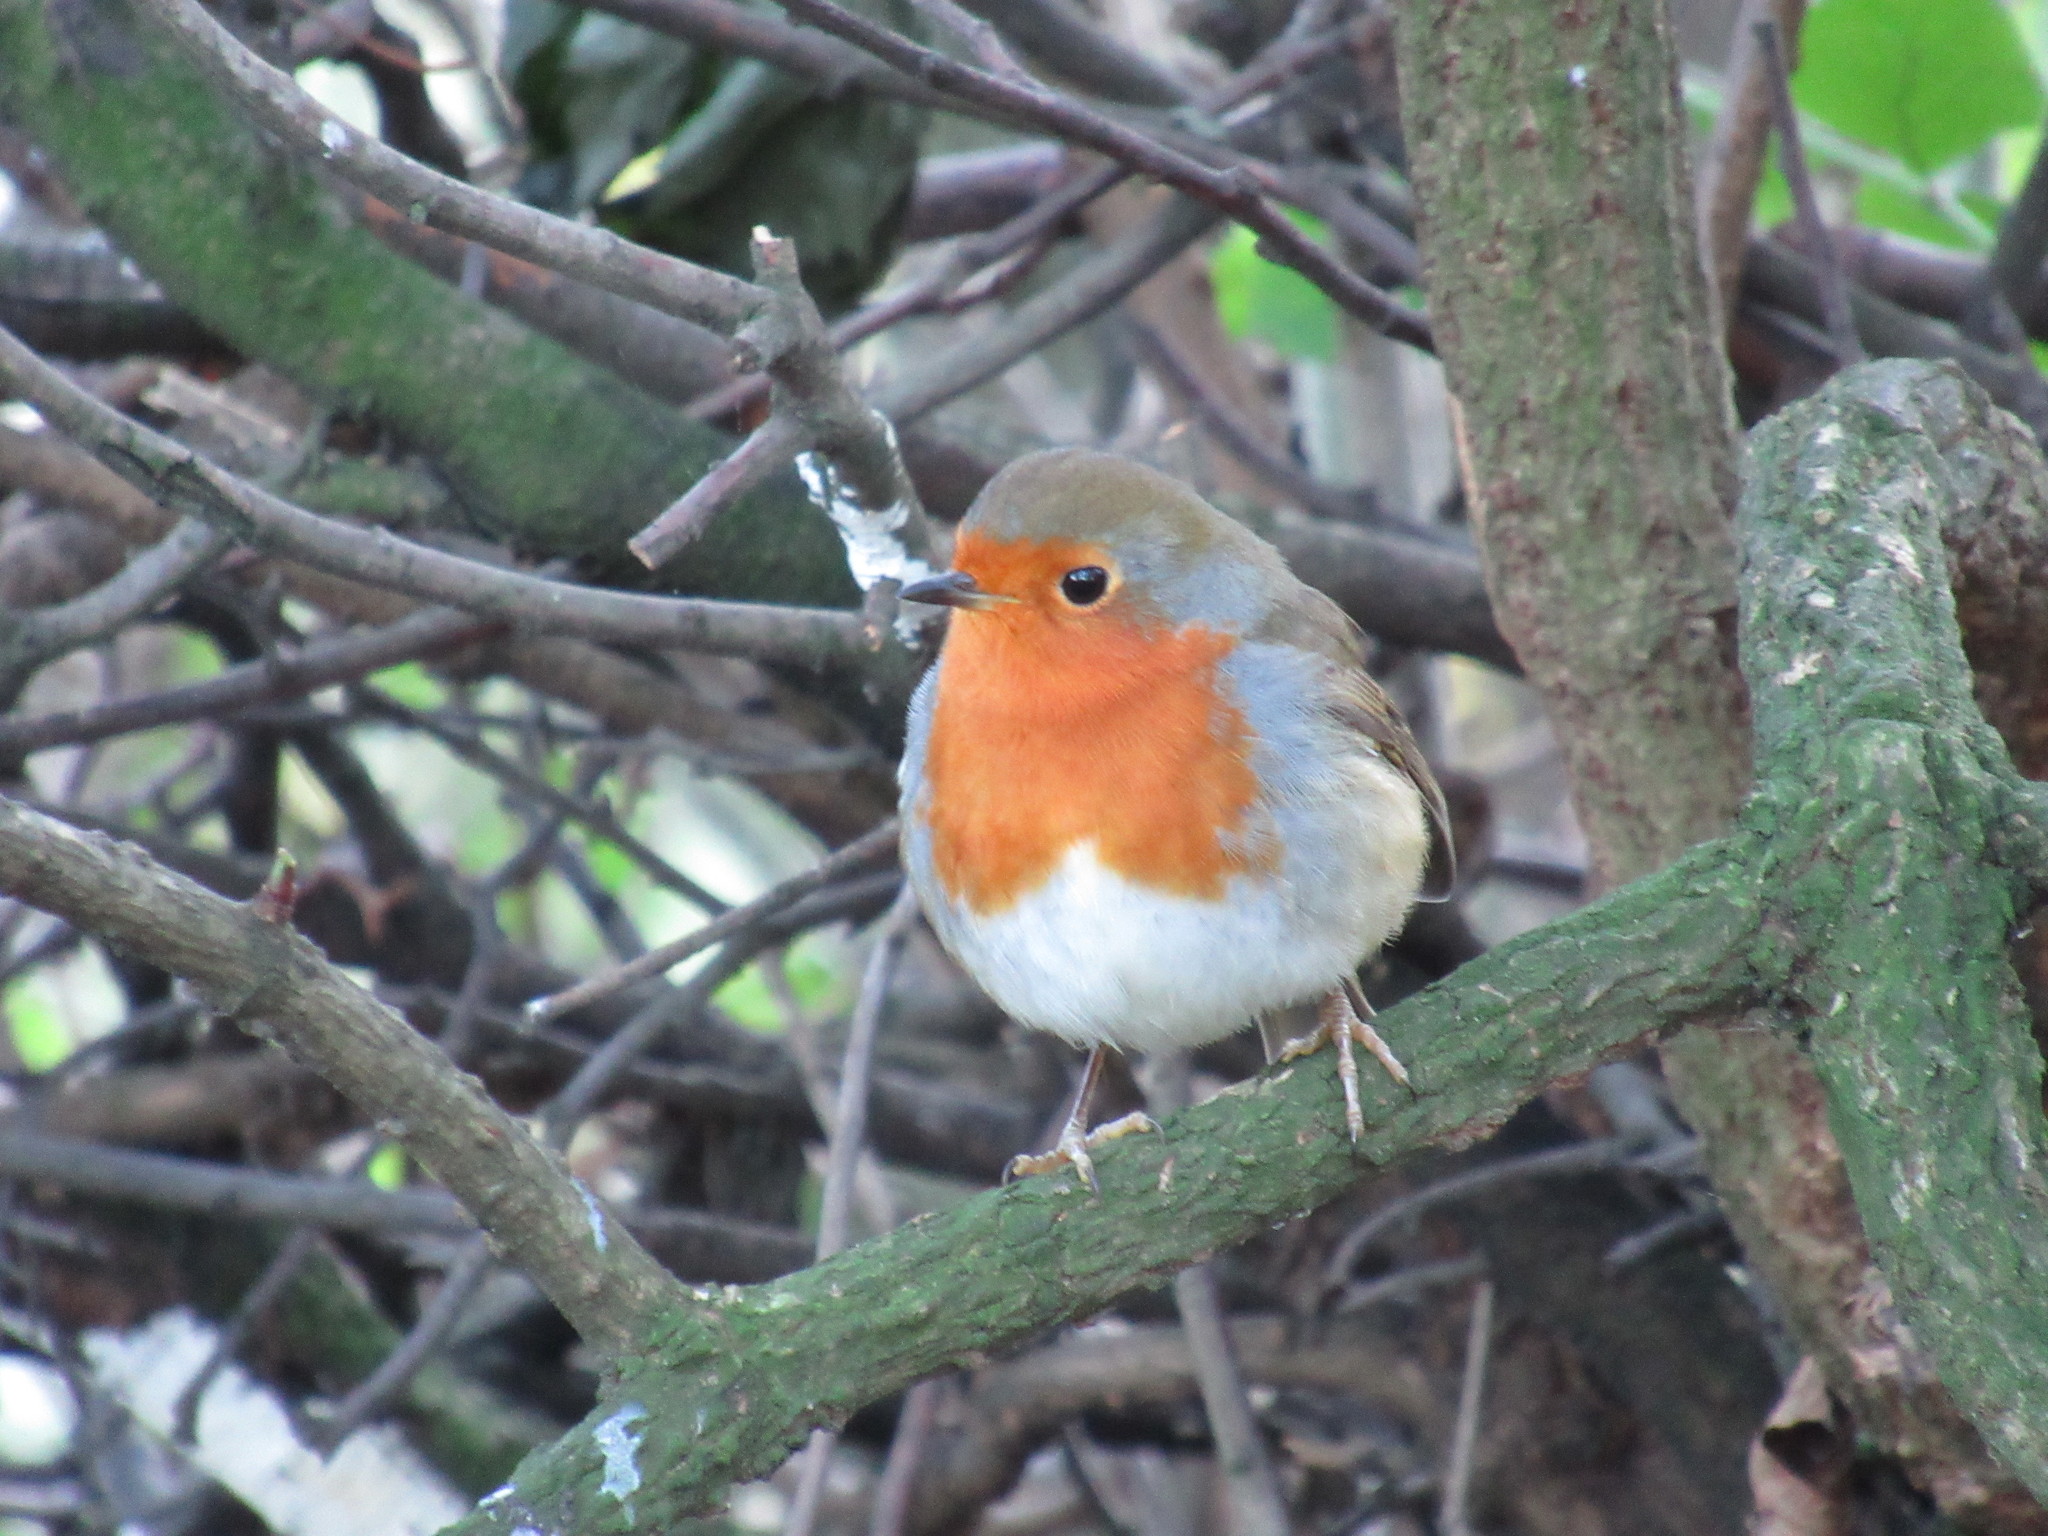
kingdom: Animalia
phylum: Chordata
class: Aves
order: Passeriformes
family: Muscicapidae
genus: Erithacus
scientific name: Erithacus rubecula
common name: European robin
